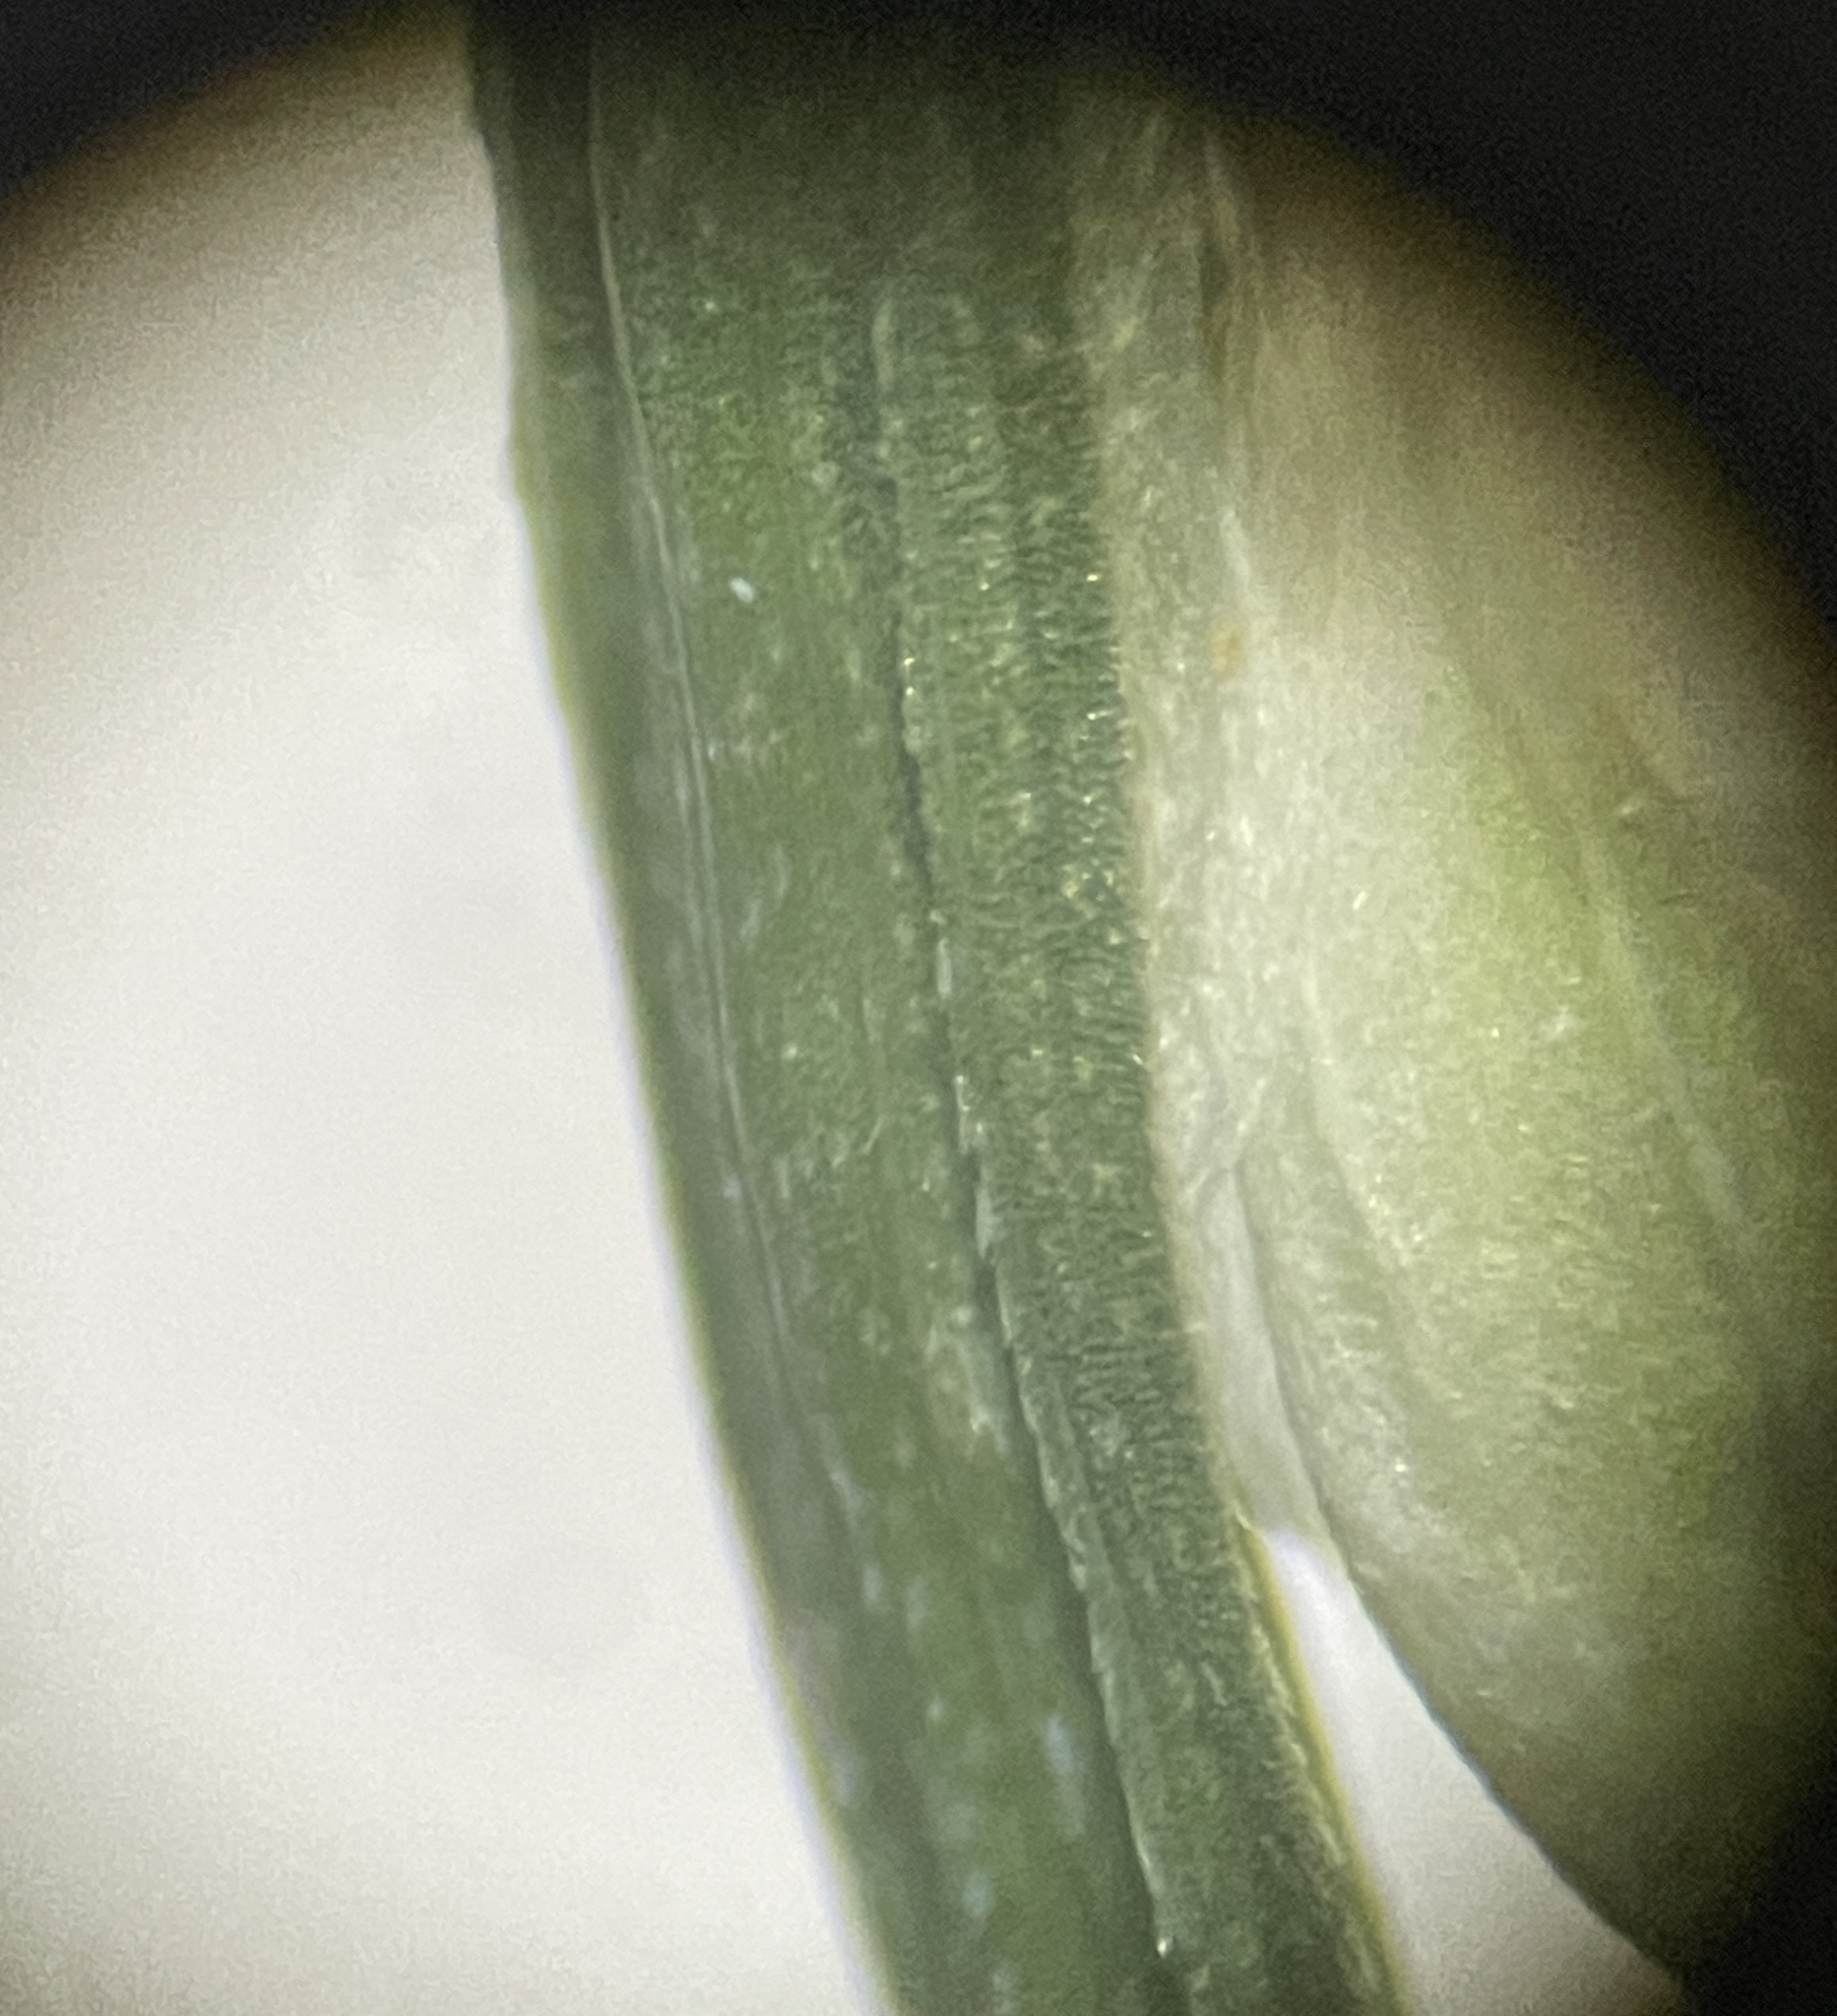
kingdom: Plantae
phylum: Tracheophyta
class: Liliopsida
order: Poales
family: Cyperaceae
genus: Carex
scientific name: Carex leptonervia
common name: Few-nerved wood sedge
